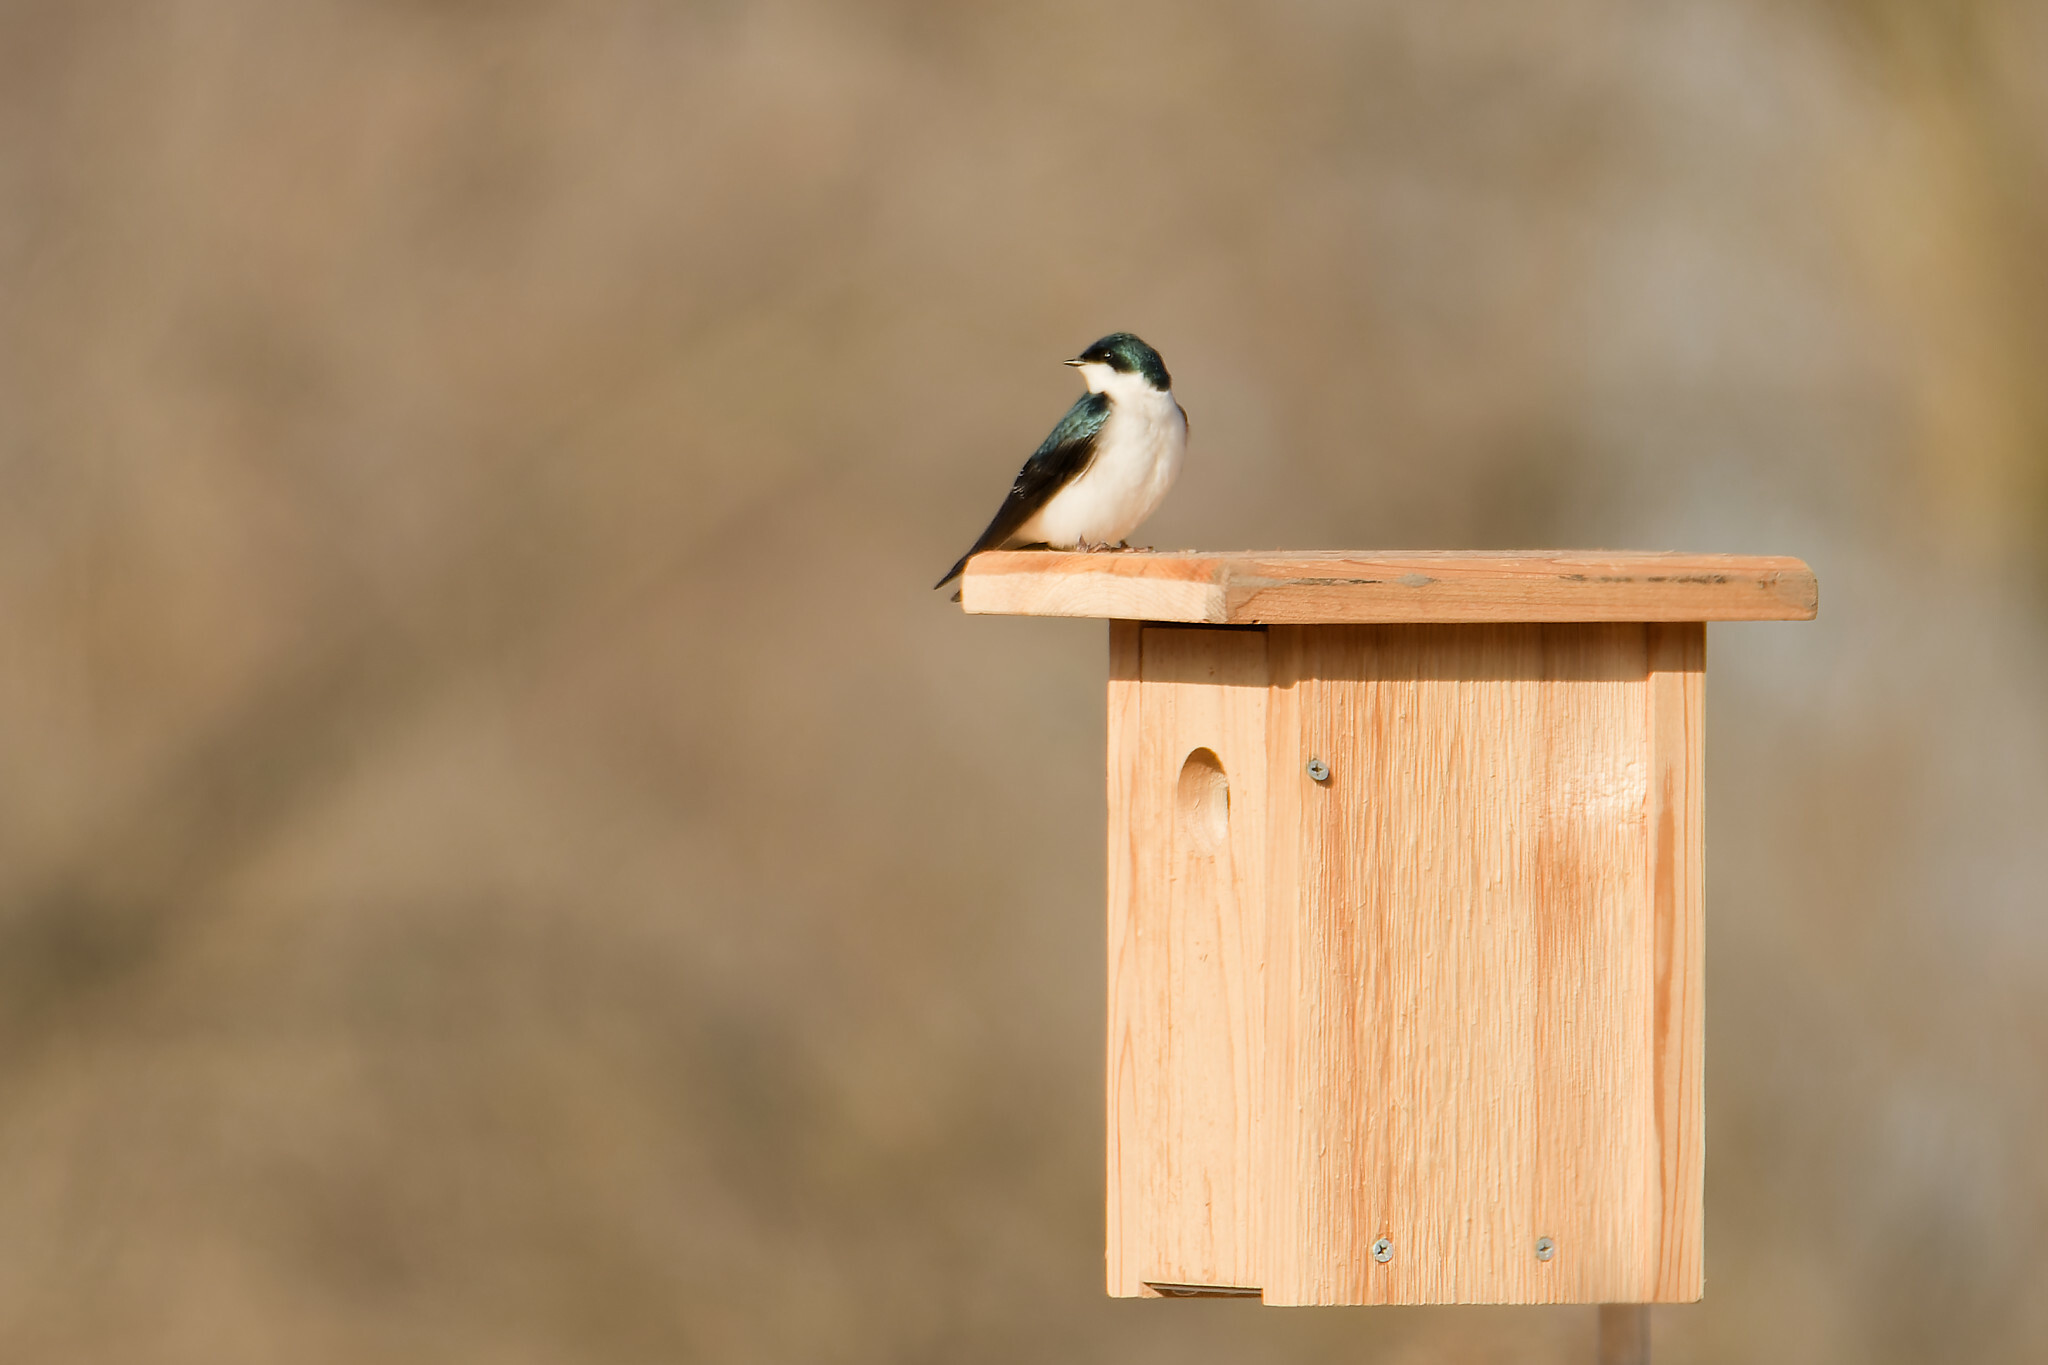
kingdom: Animalia
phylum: Chordata
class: Aves
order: Passeriformes
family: Hirundinidae
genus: Tachycineta
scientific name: Tachycineta bicolor
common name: Tree swallow
